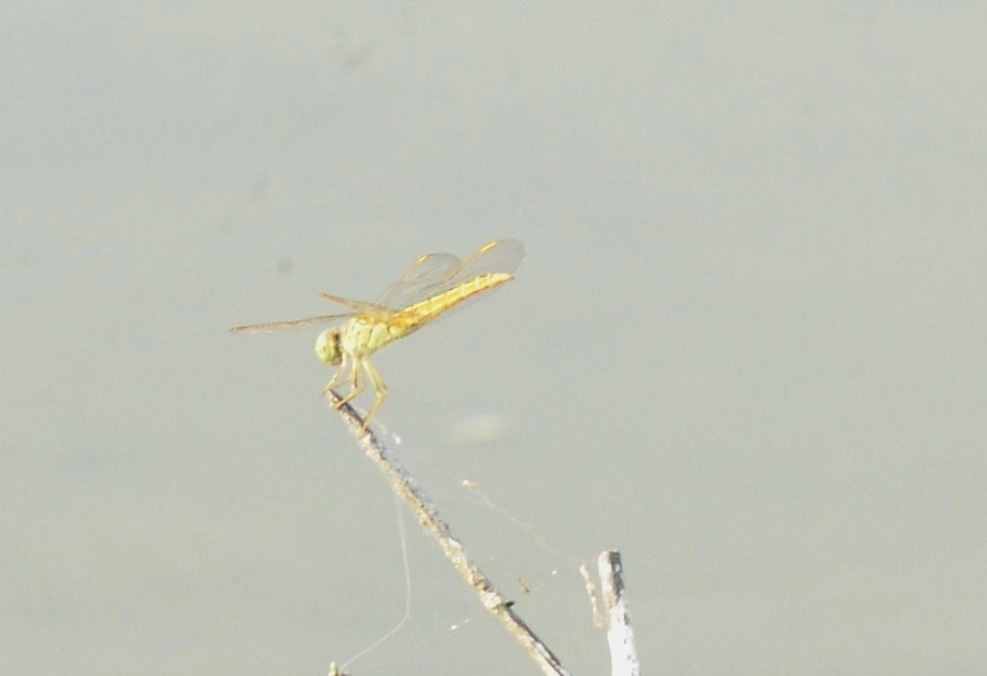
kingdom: Animalia
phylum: Arthropoda
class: Insecta
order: Odonata
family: Libellulidae
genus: Brachythemis
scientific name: Brachythemis contaminata
